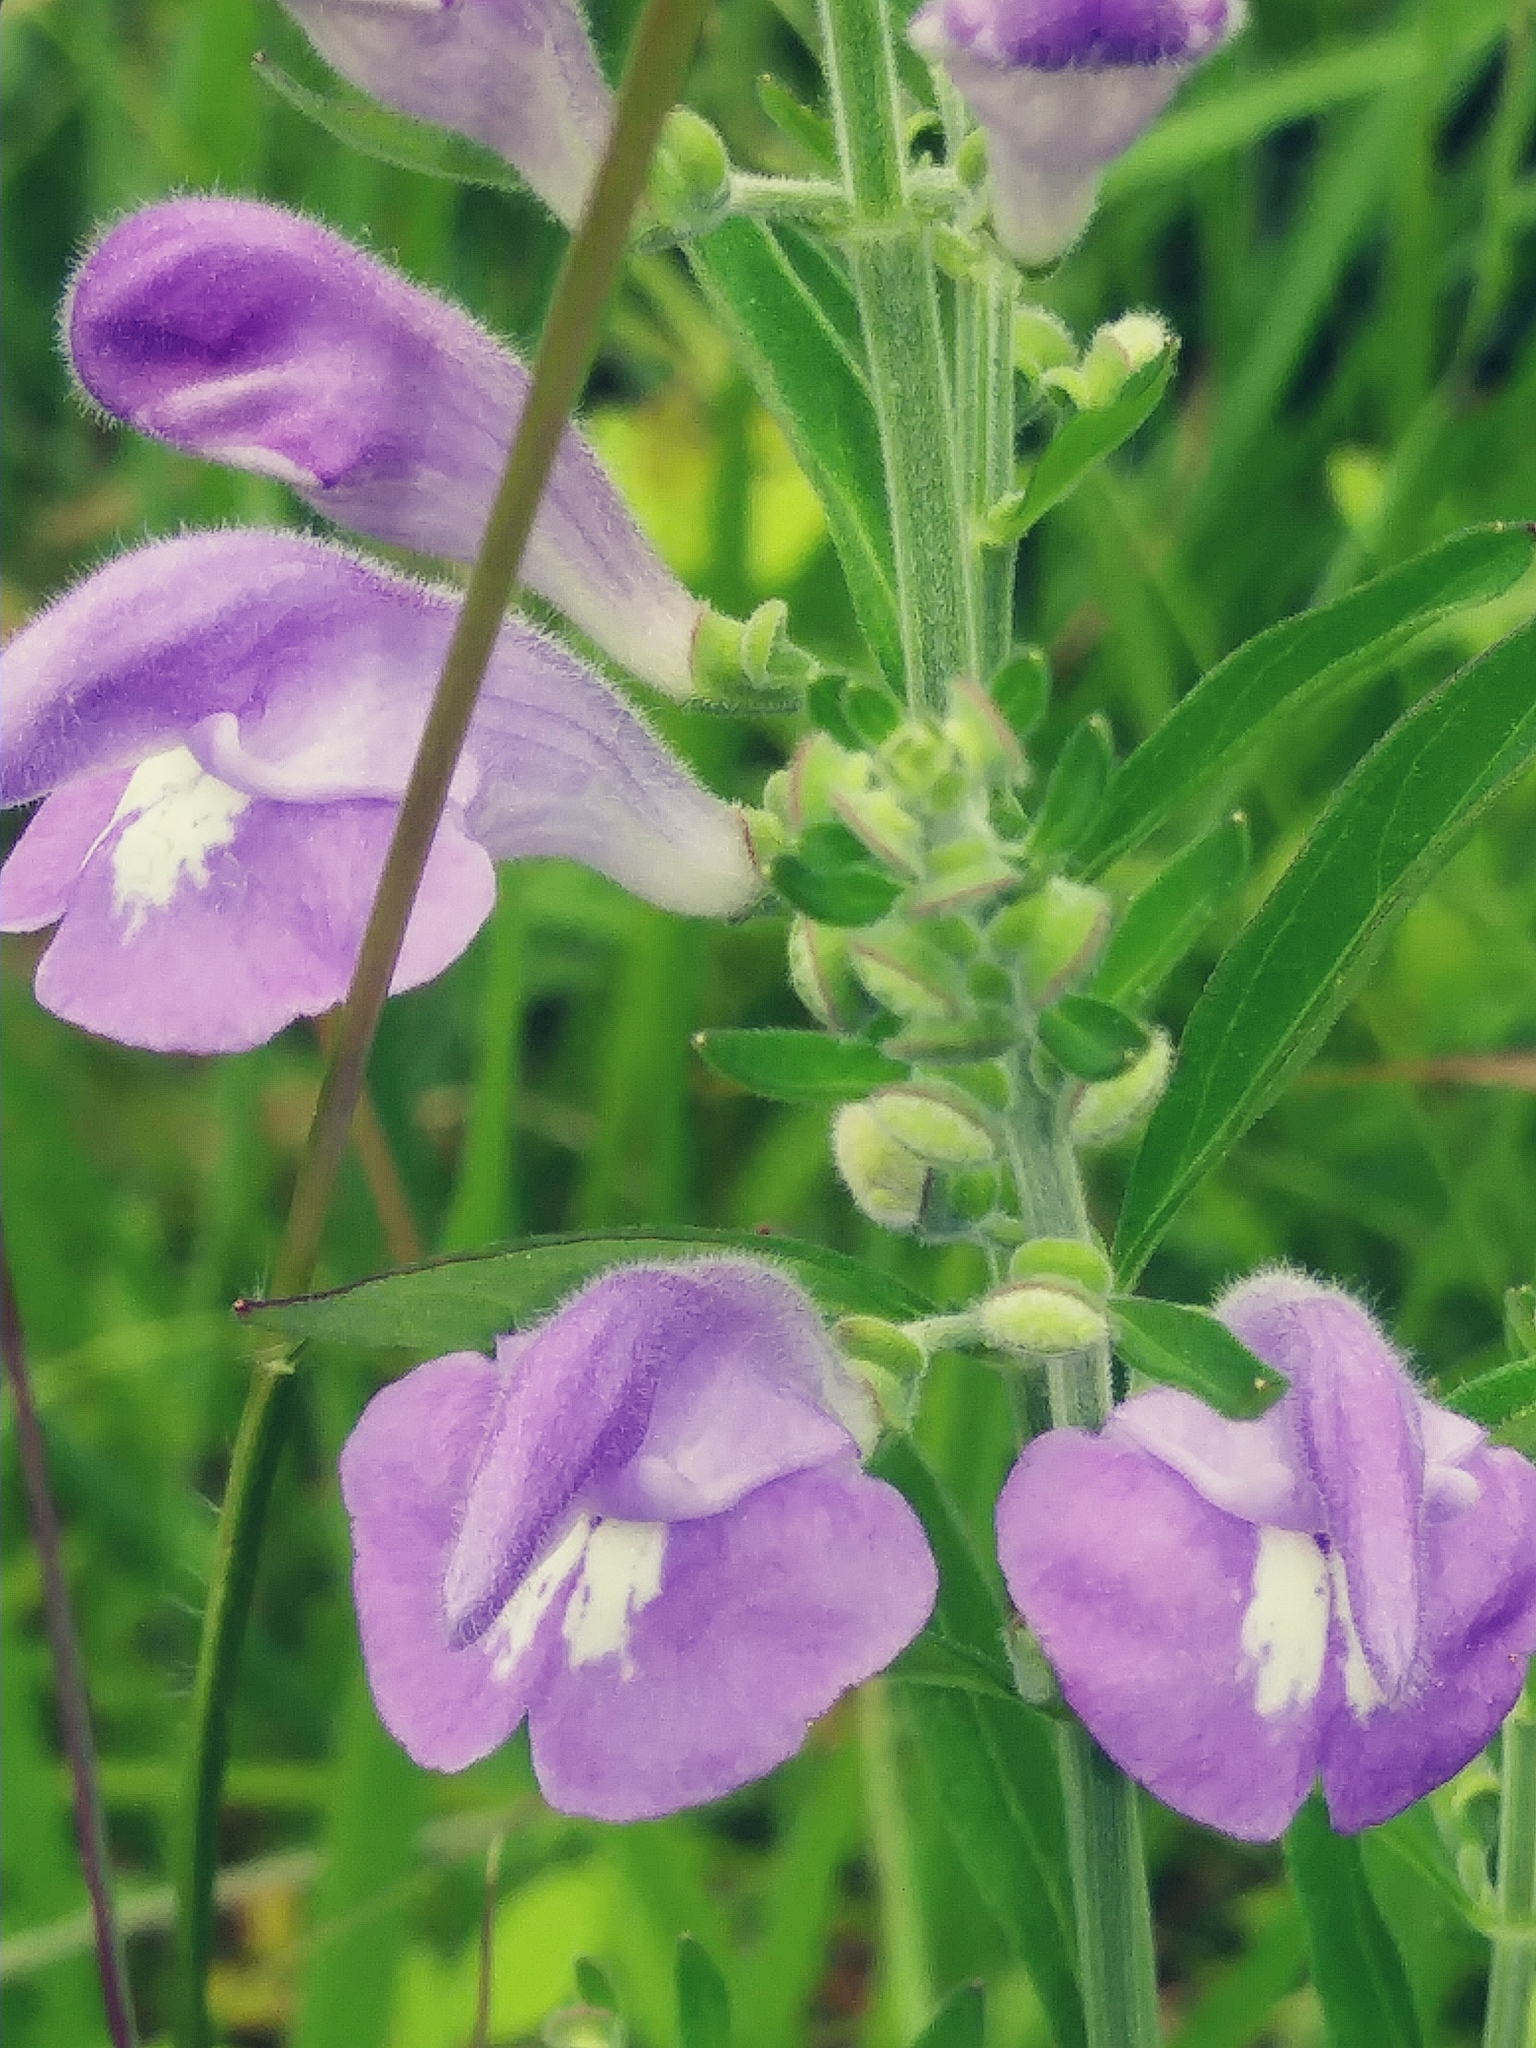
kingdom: Plantae
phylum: Tracheophyta
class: Magnoliopsida
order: Lamiales
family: Lamiaceae
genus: Scutellaria
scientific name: Scutellaria integrifolia
